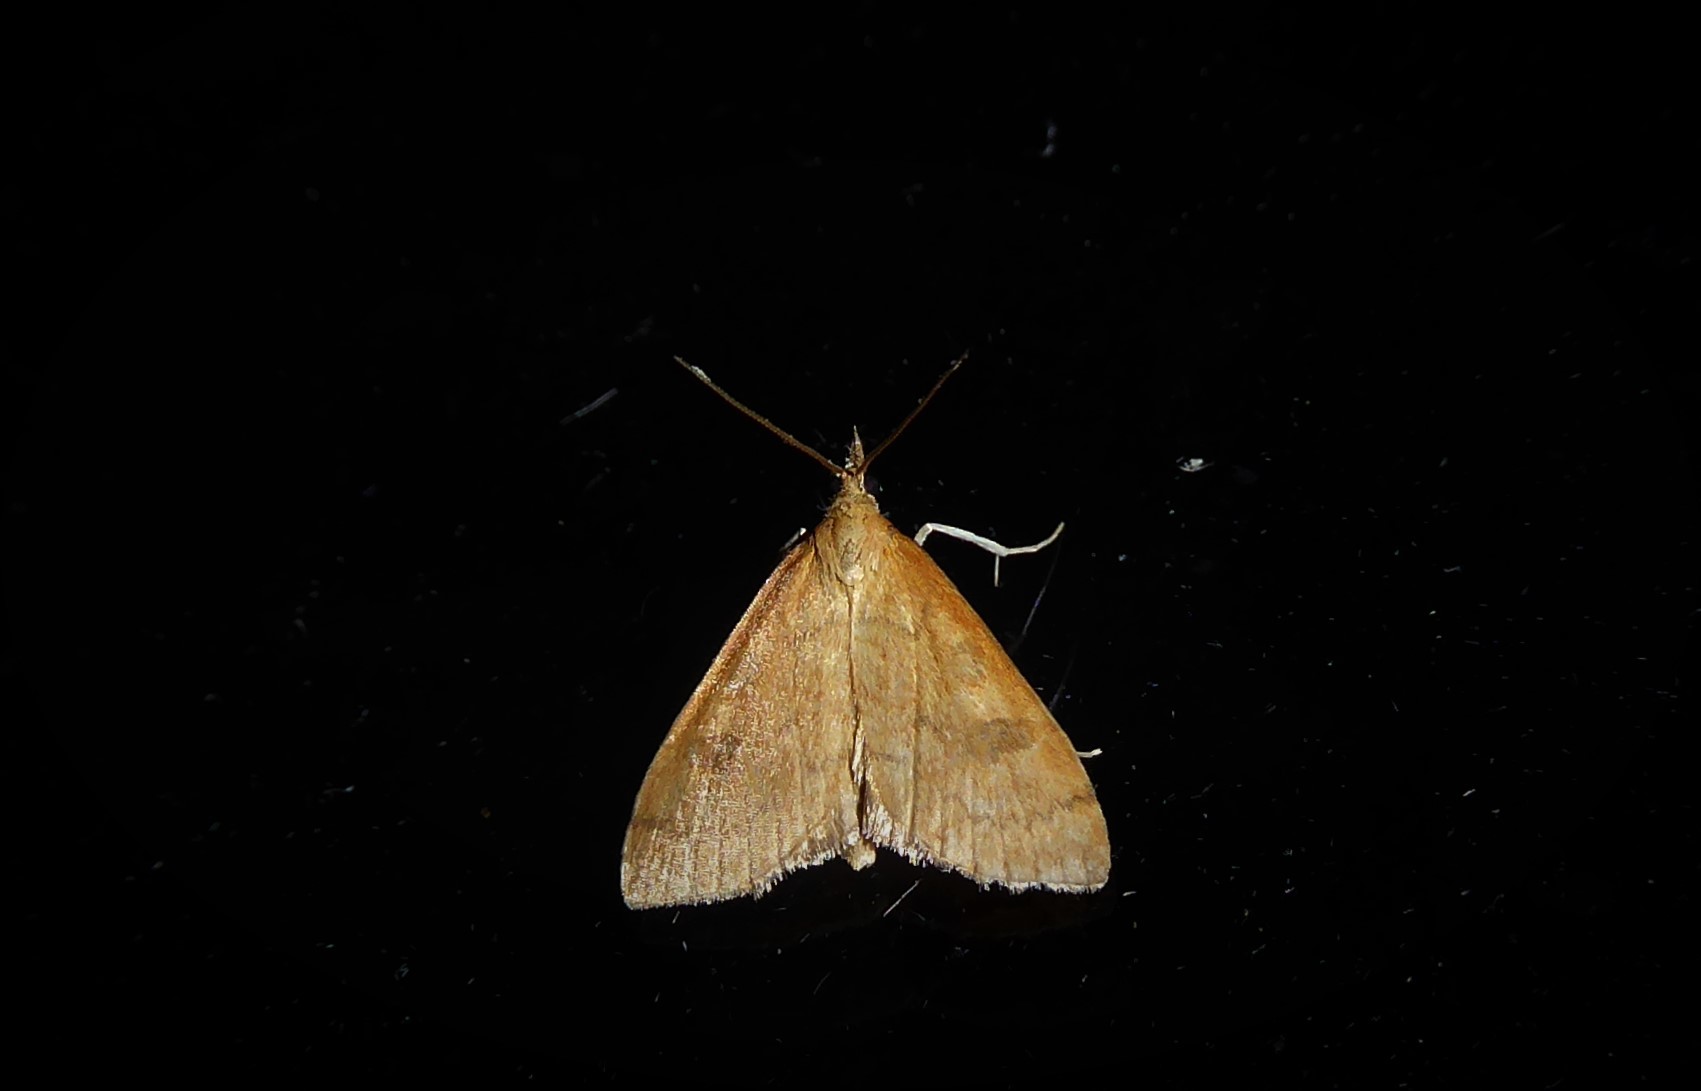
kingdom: Animalia
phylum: Arthropoda
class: Insecta
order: Lepidoptera
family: Crambidae
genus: Udea
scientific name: Udea Mnesictena flavidalis
